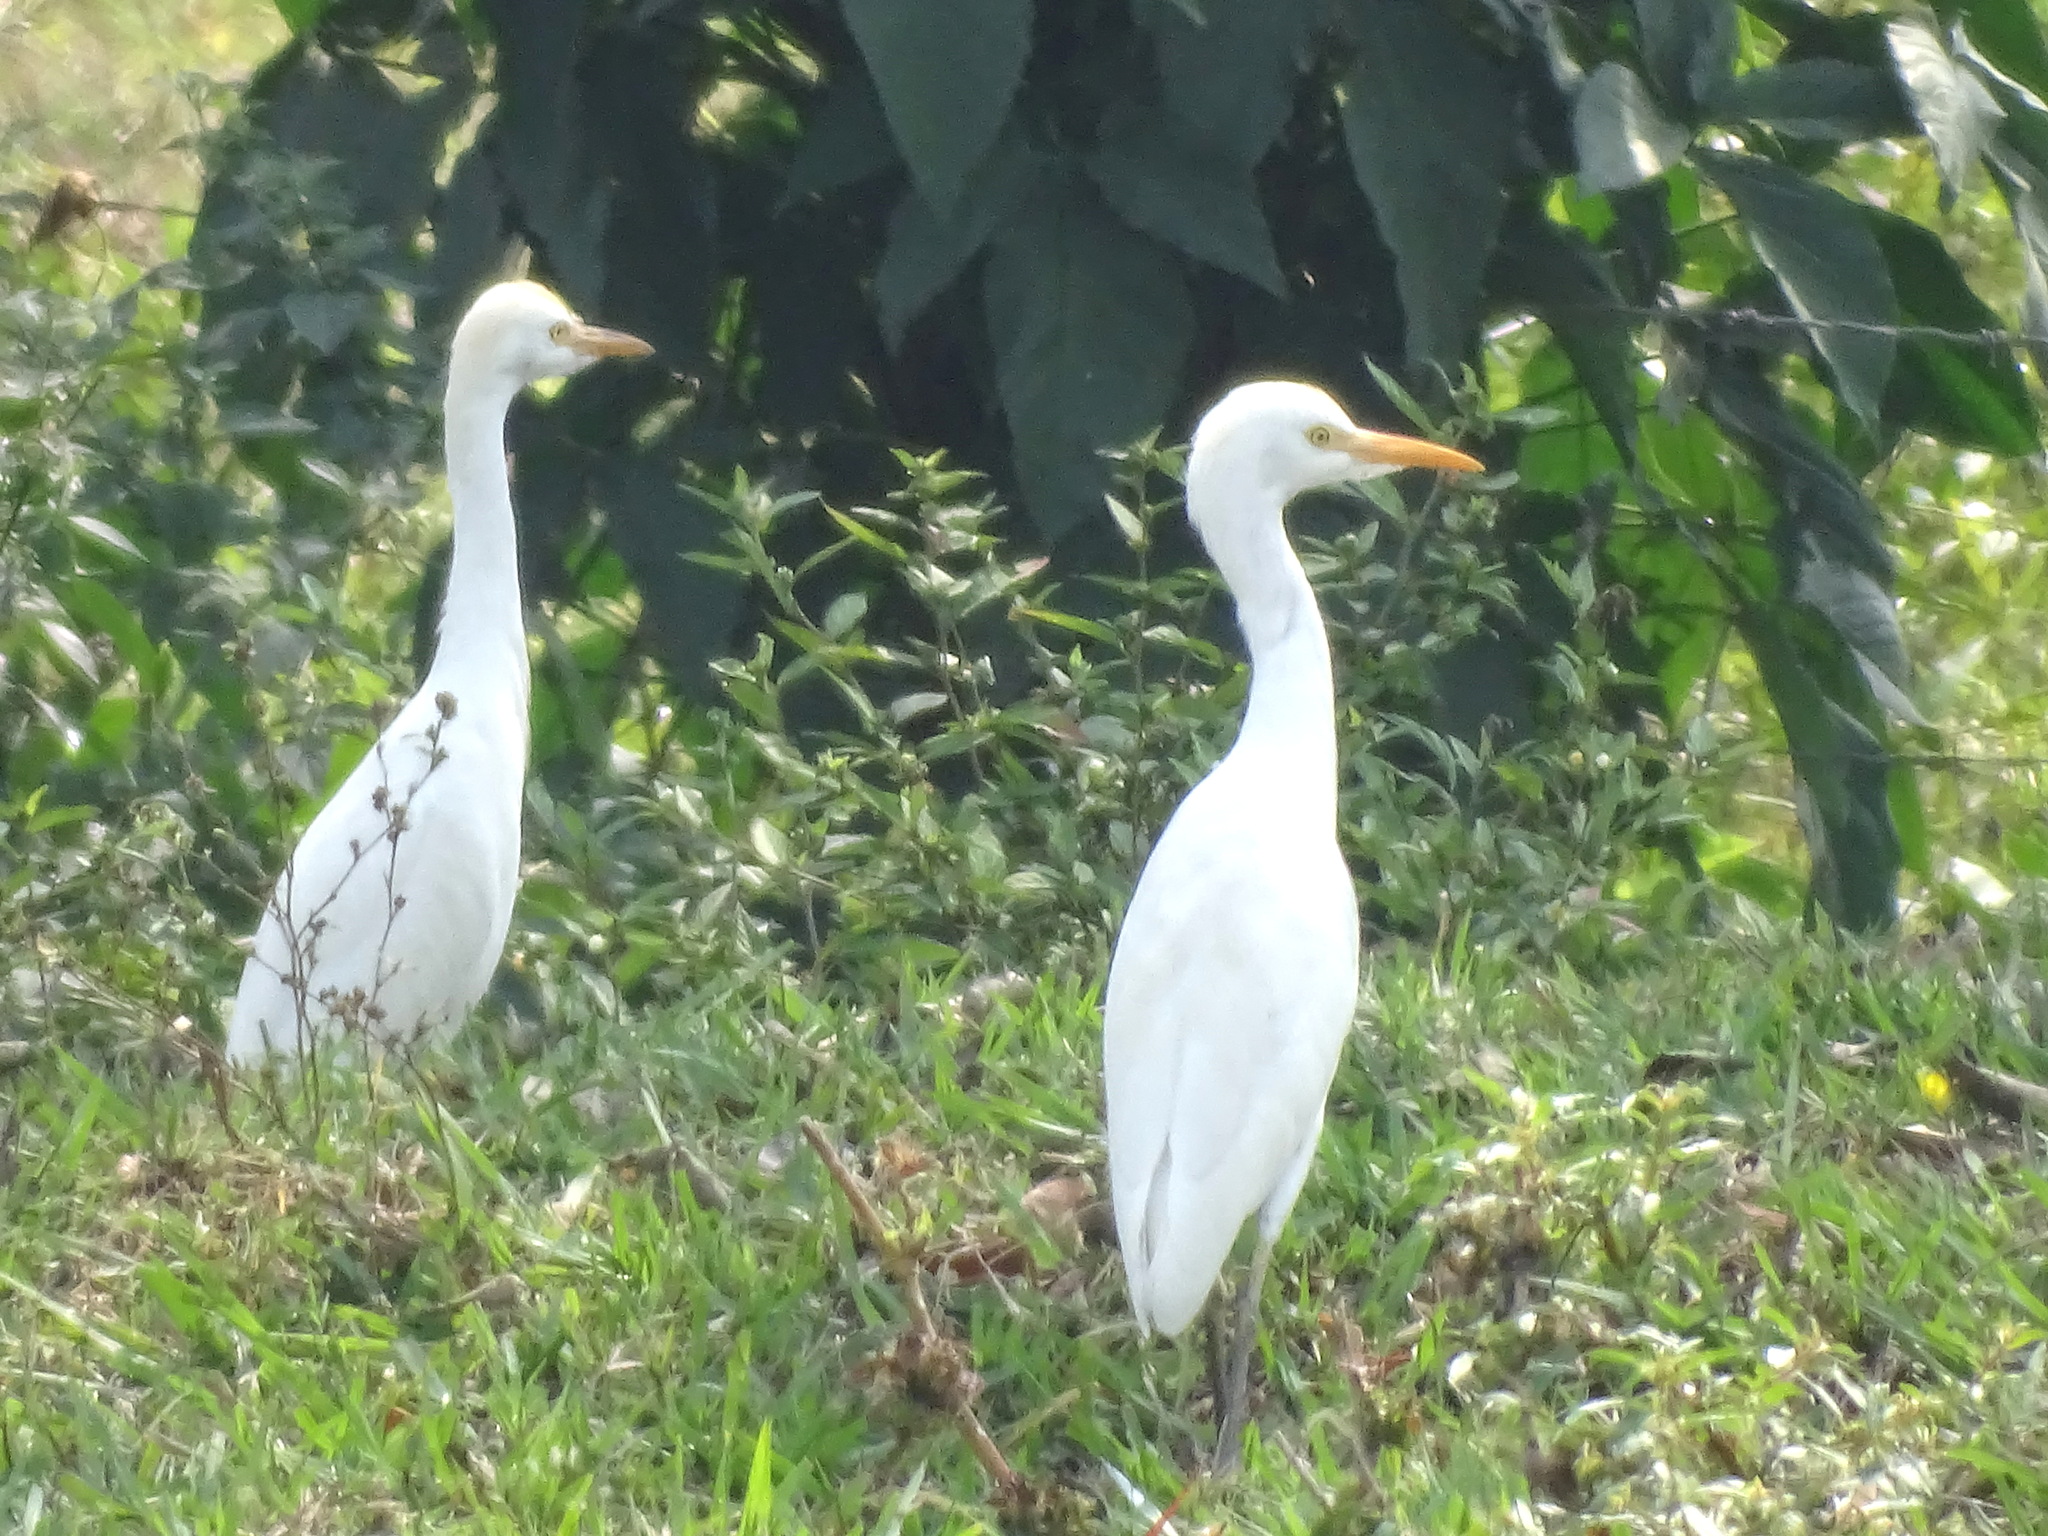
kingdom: Animalia
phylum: Chordata
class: Aves
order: Pelecaniformes
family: Ardeidae
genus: Bubulcus
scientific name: Bubulcus ibis
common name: Cattle egret
